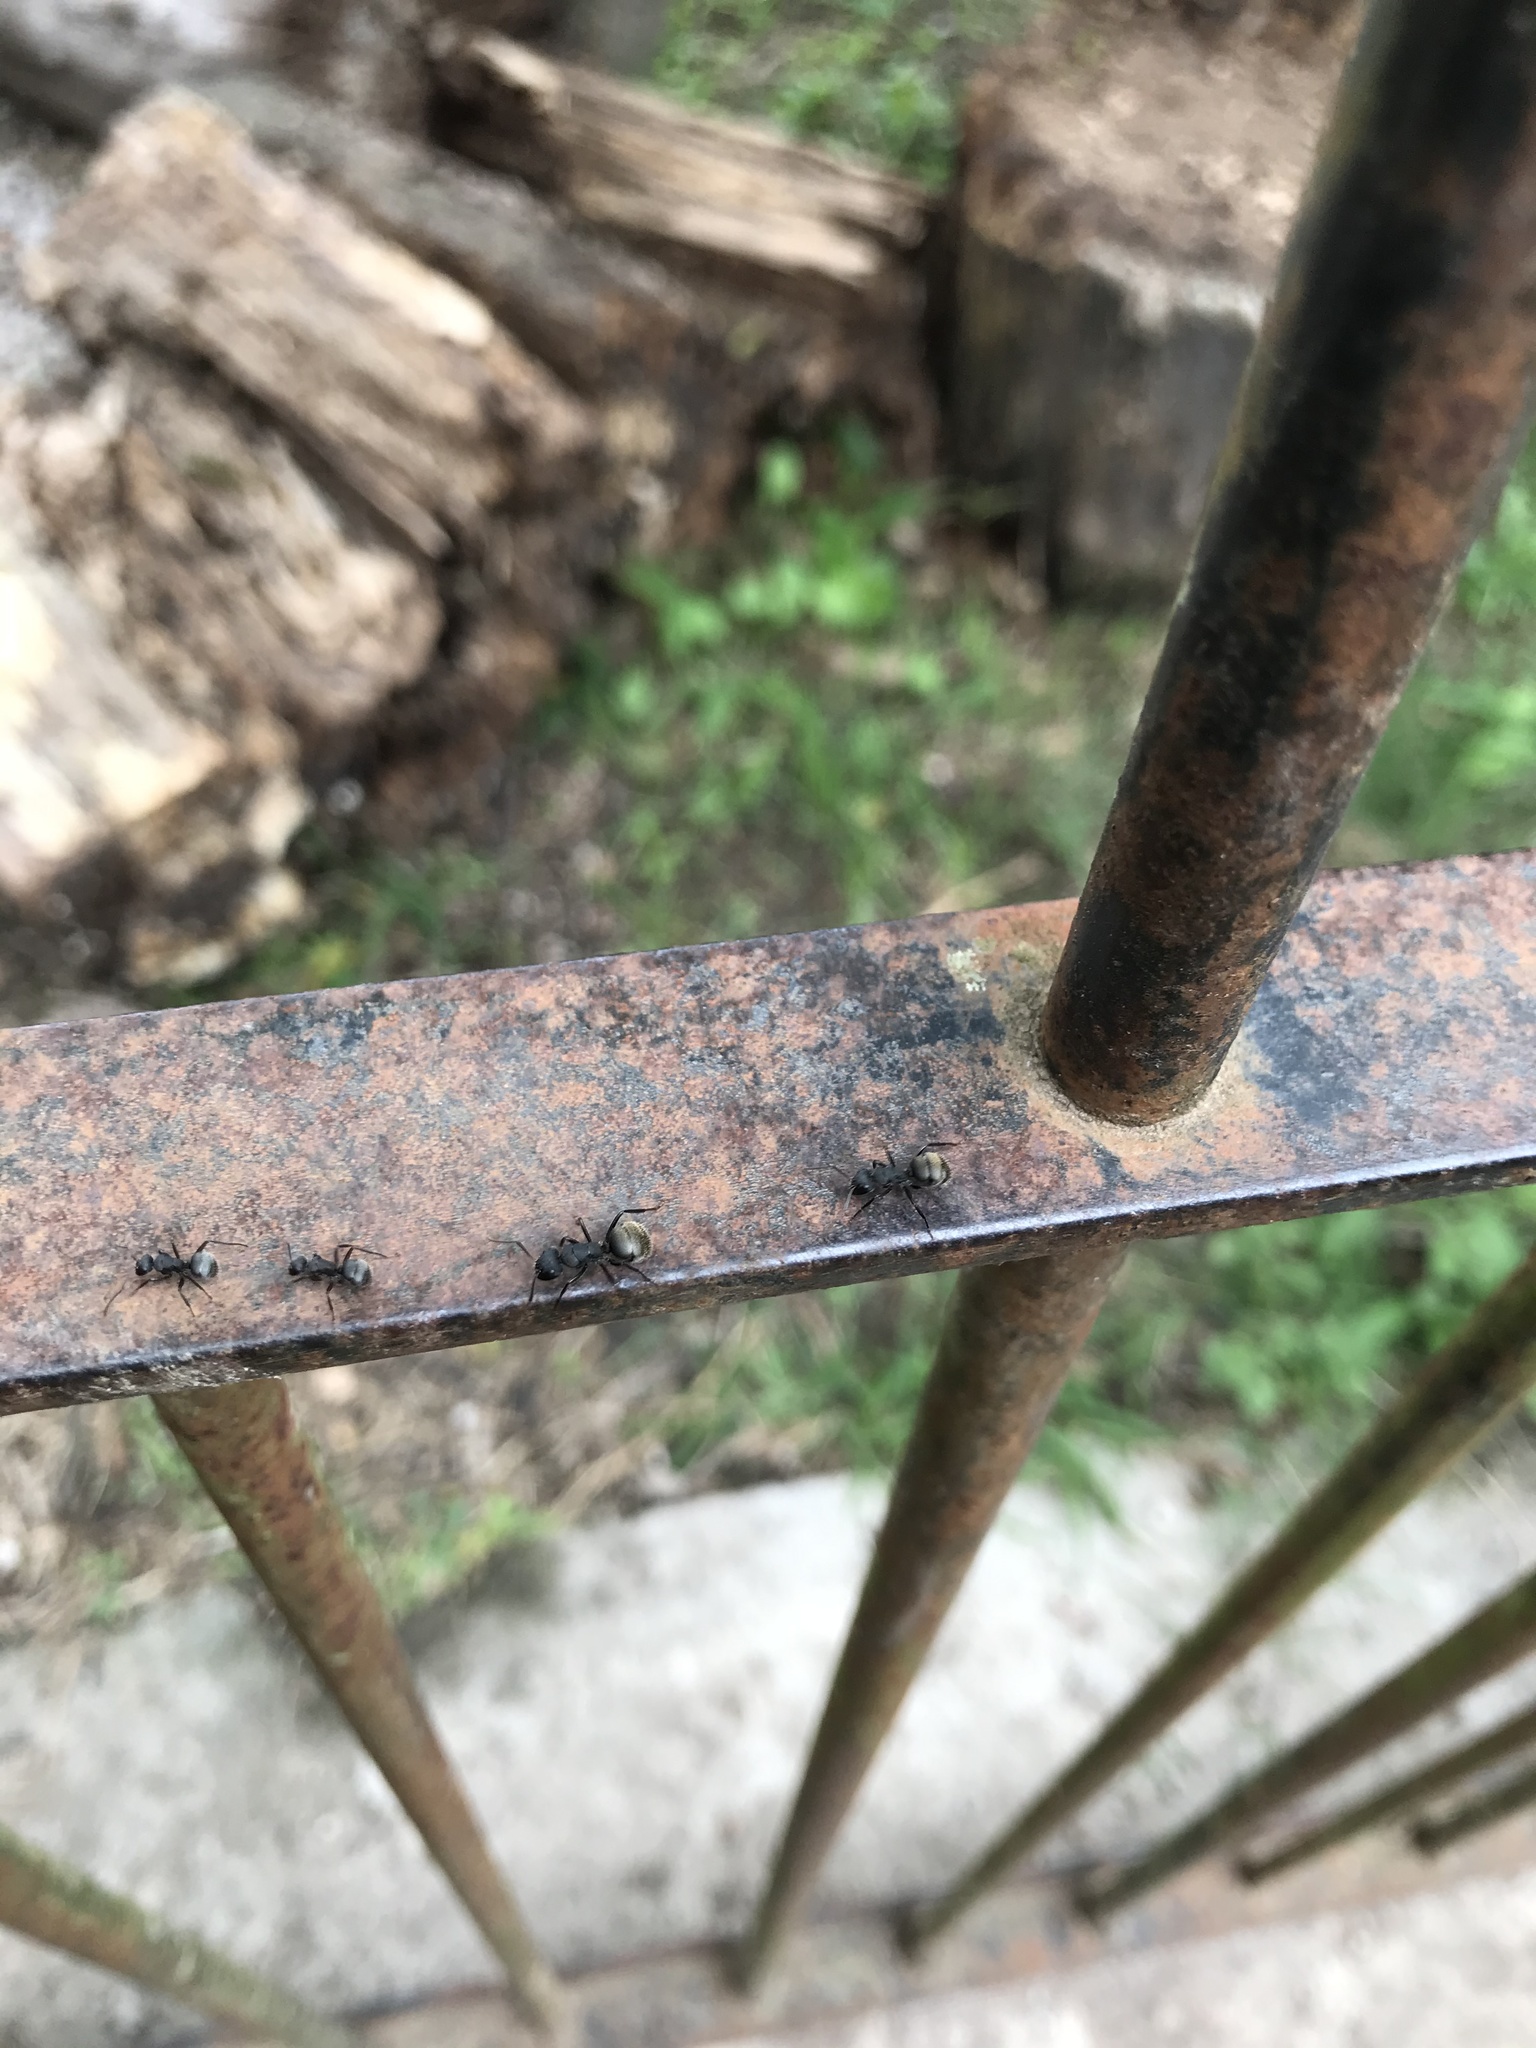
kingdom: Animalia
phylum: Arthropoda
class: Insecta
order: Hymenoptera
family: Formicidae
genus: Camponotus
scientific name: Camponotus mus
